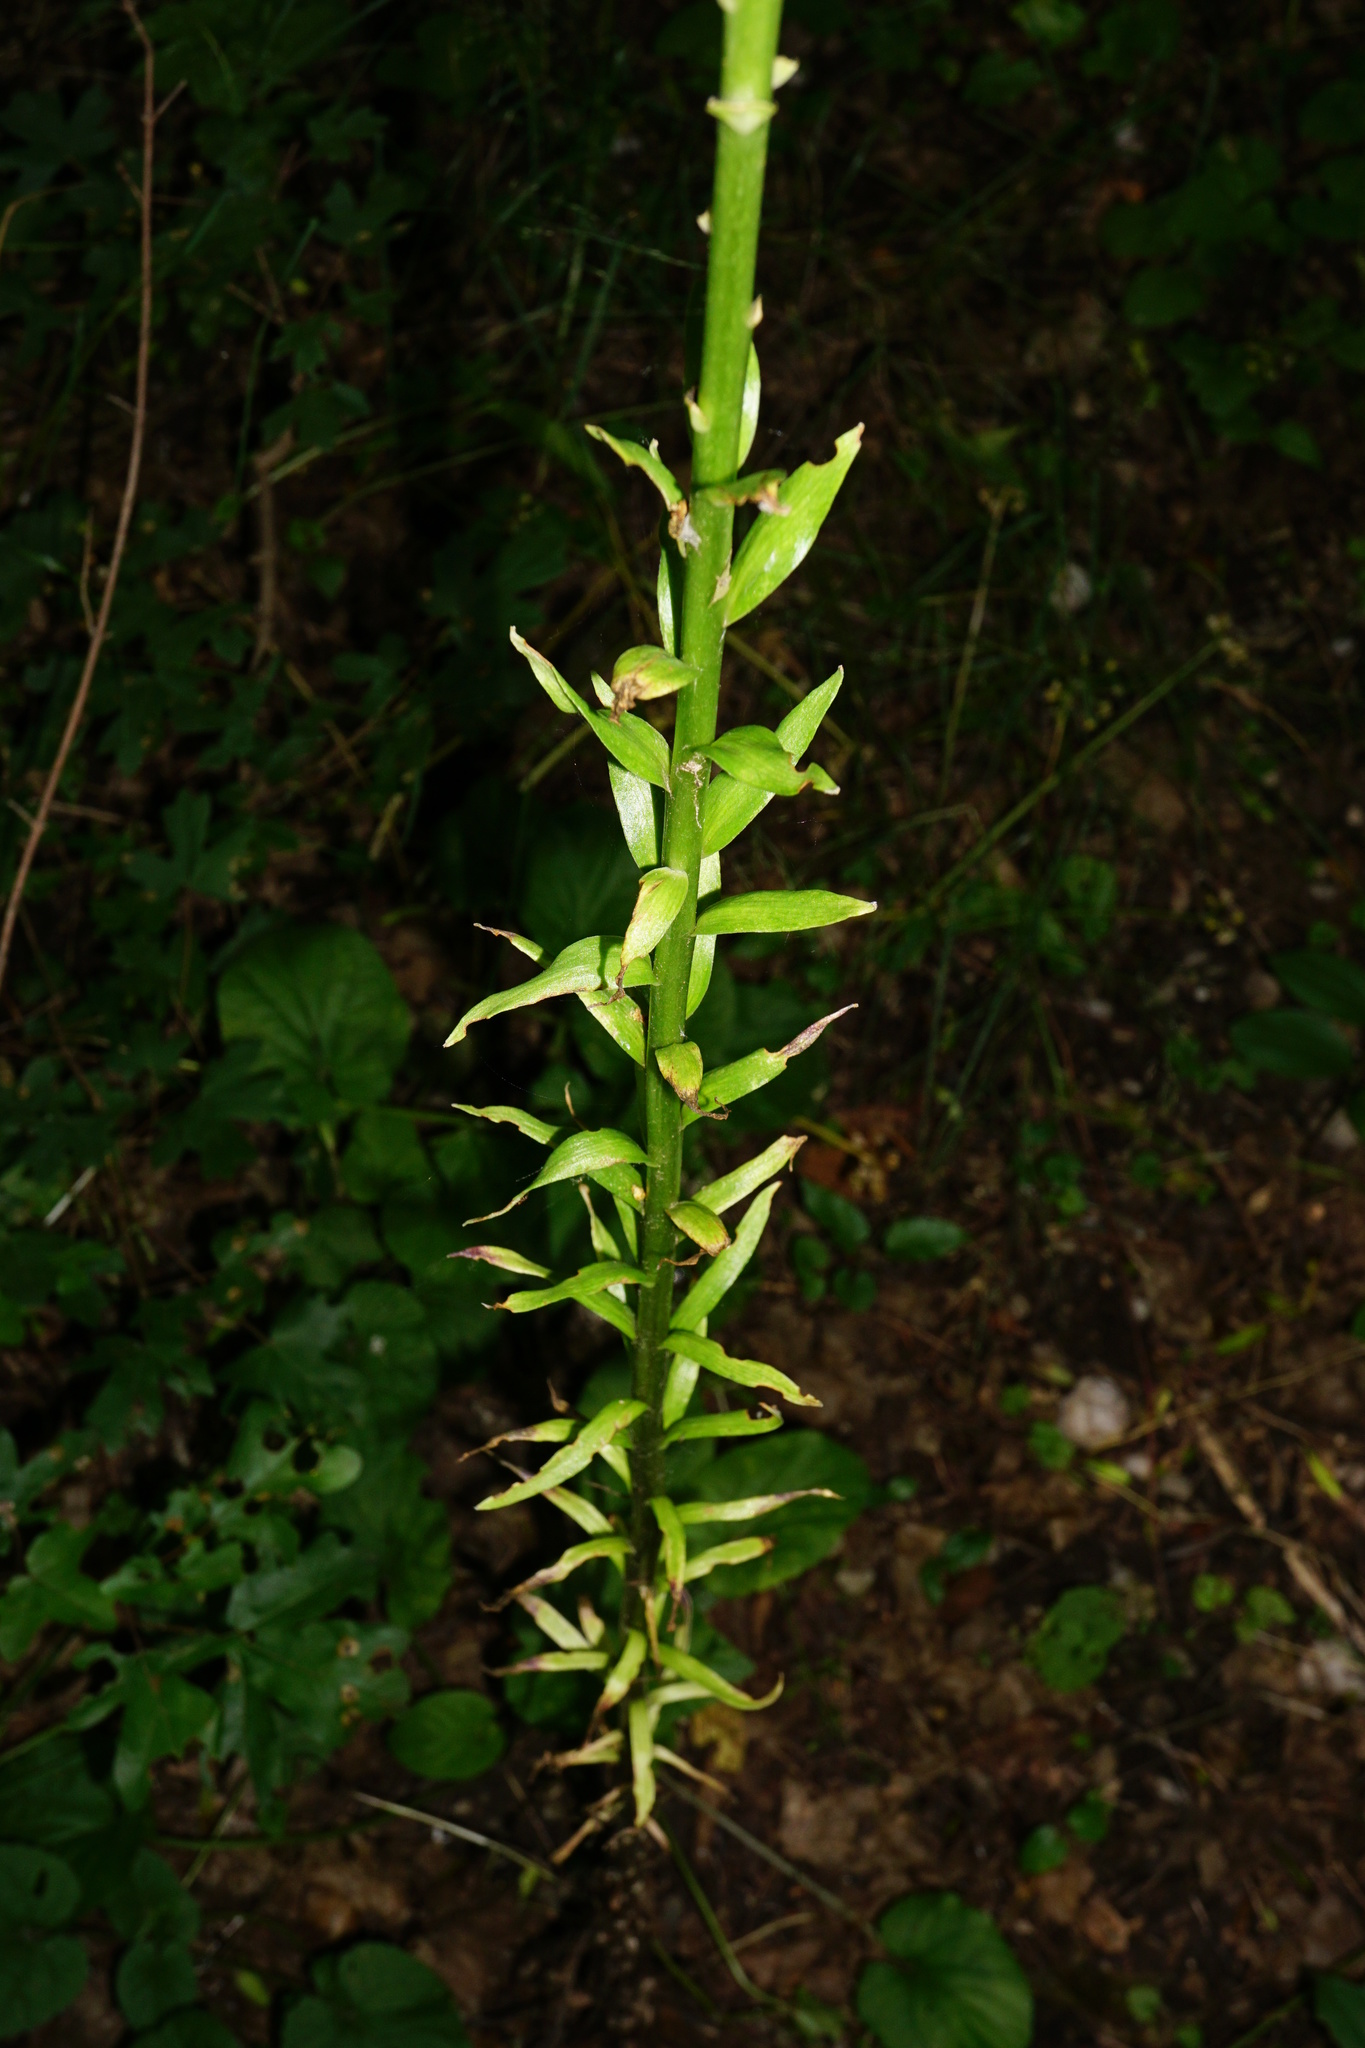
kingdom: Plantae
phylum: Tracheophyta
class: Liliopsida
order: Liliales
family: Liliaceae
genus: Lilium
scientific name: Lilium candidum
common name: Madonna lily
